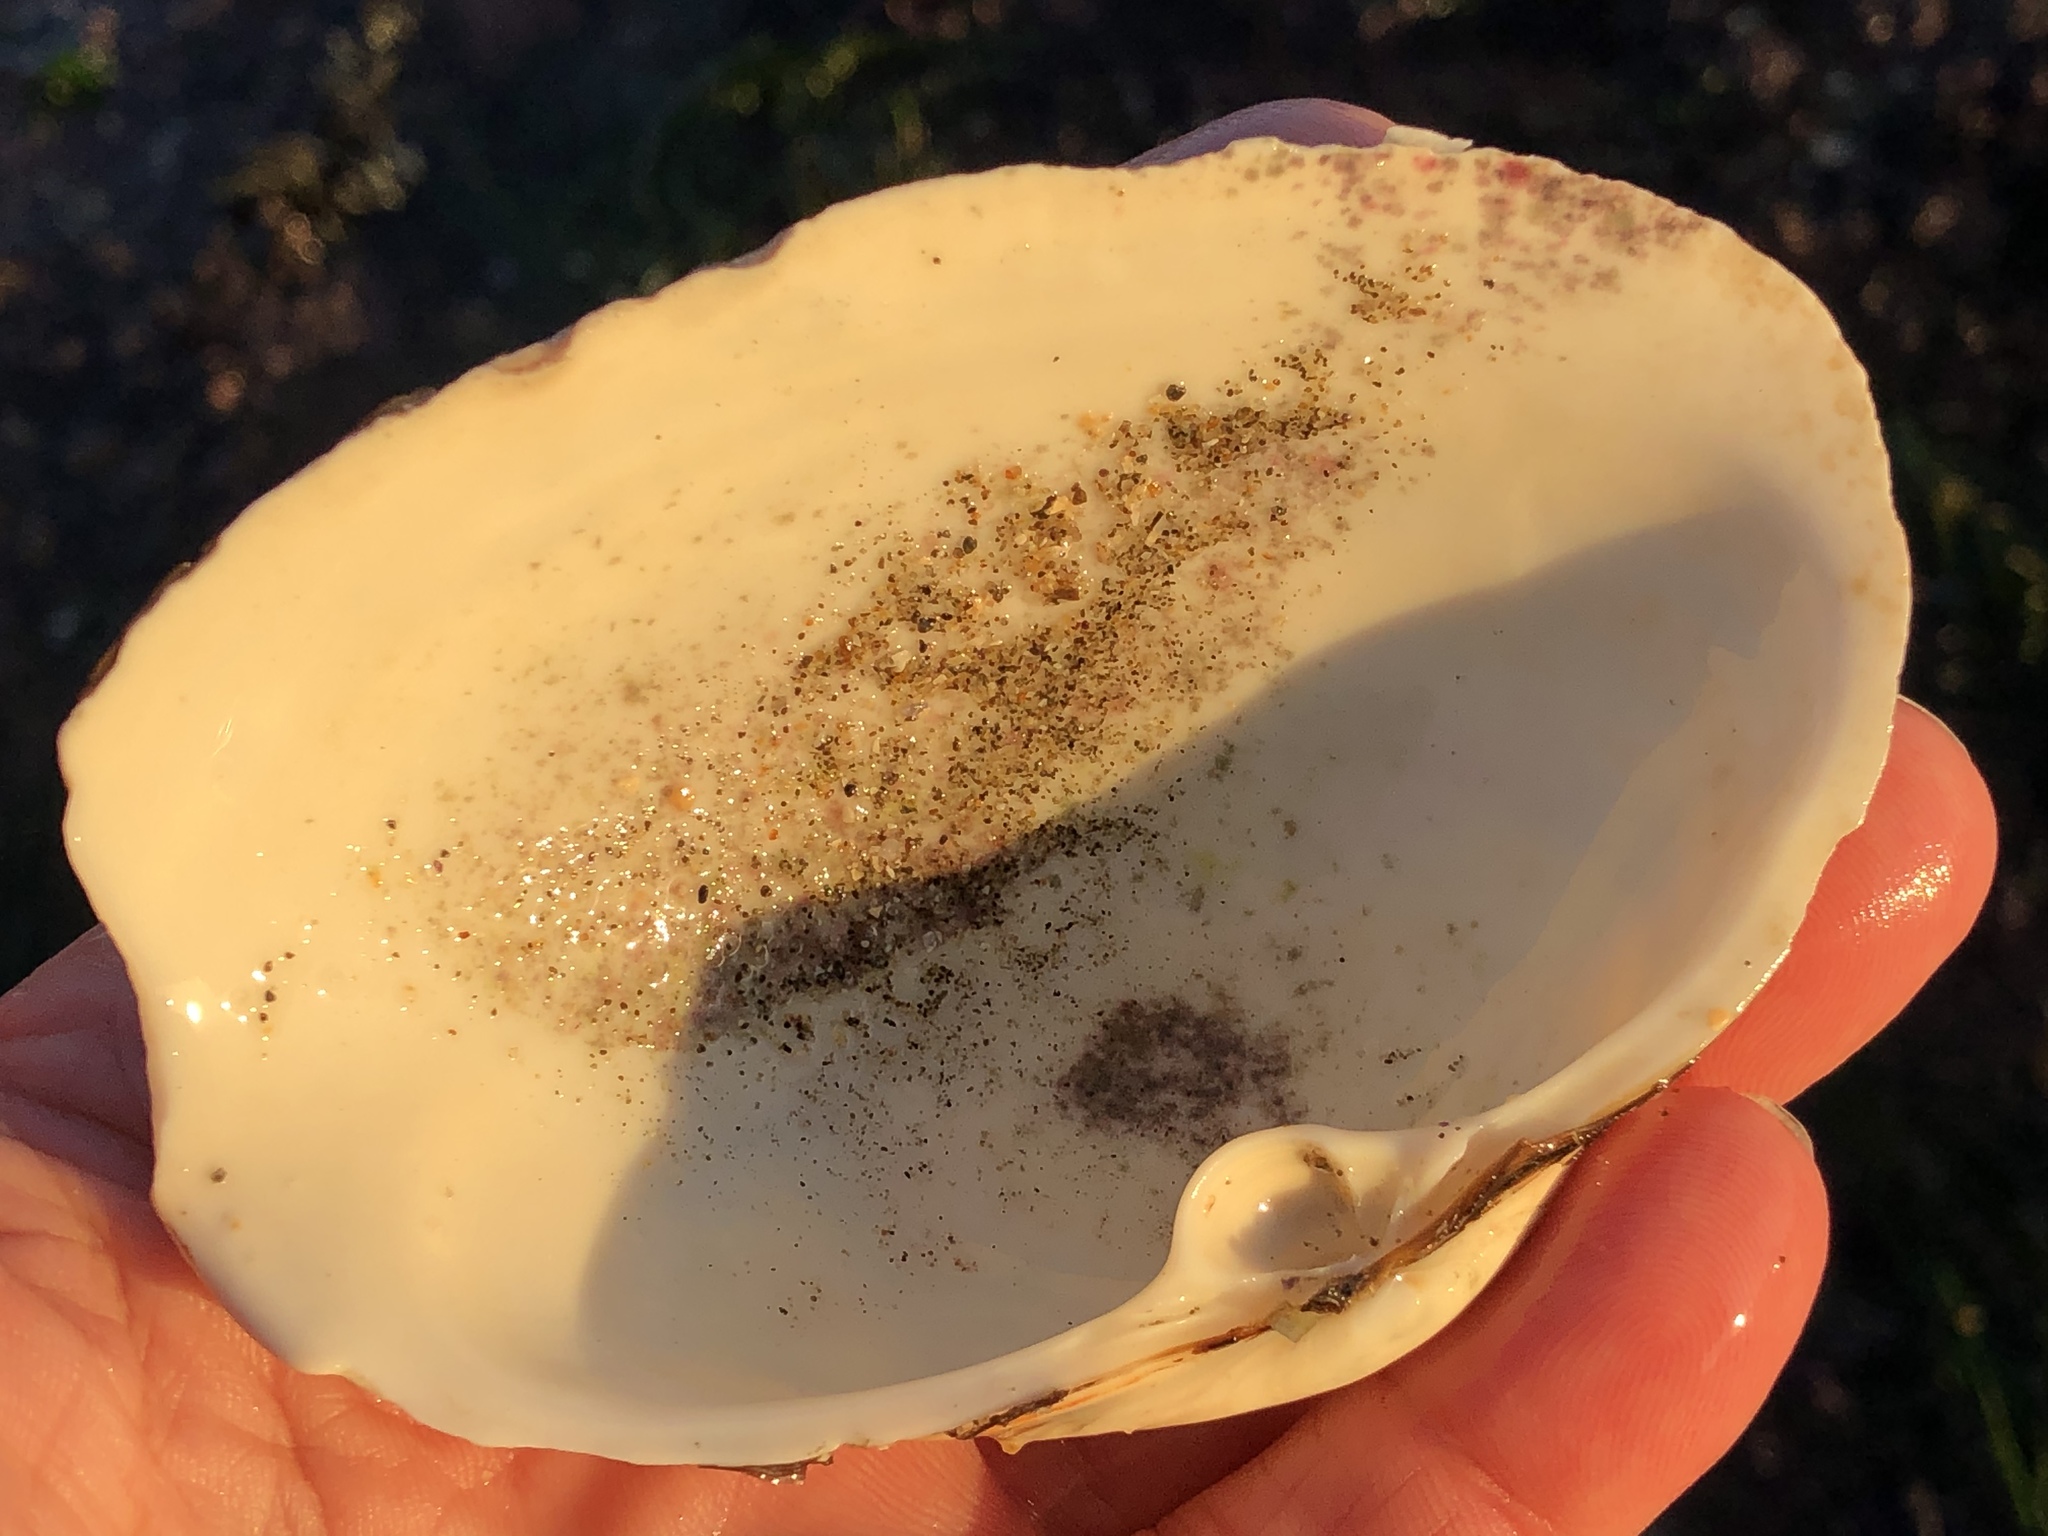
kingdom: Animalia
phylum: Mollusca
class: Bivalvia
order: Venerida
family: Mactridae
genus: Tresus
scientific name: Tresus nuttallii
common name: Pacific gaper clam
